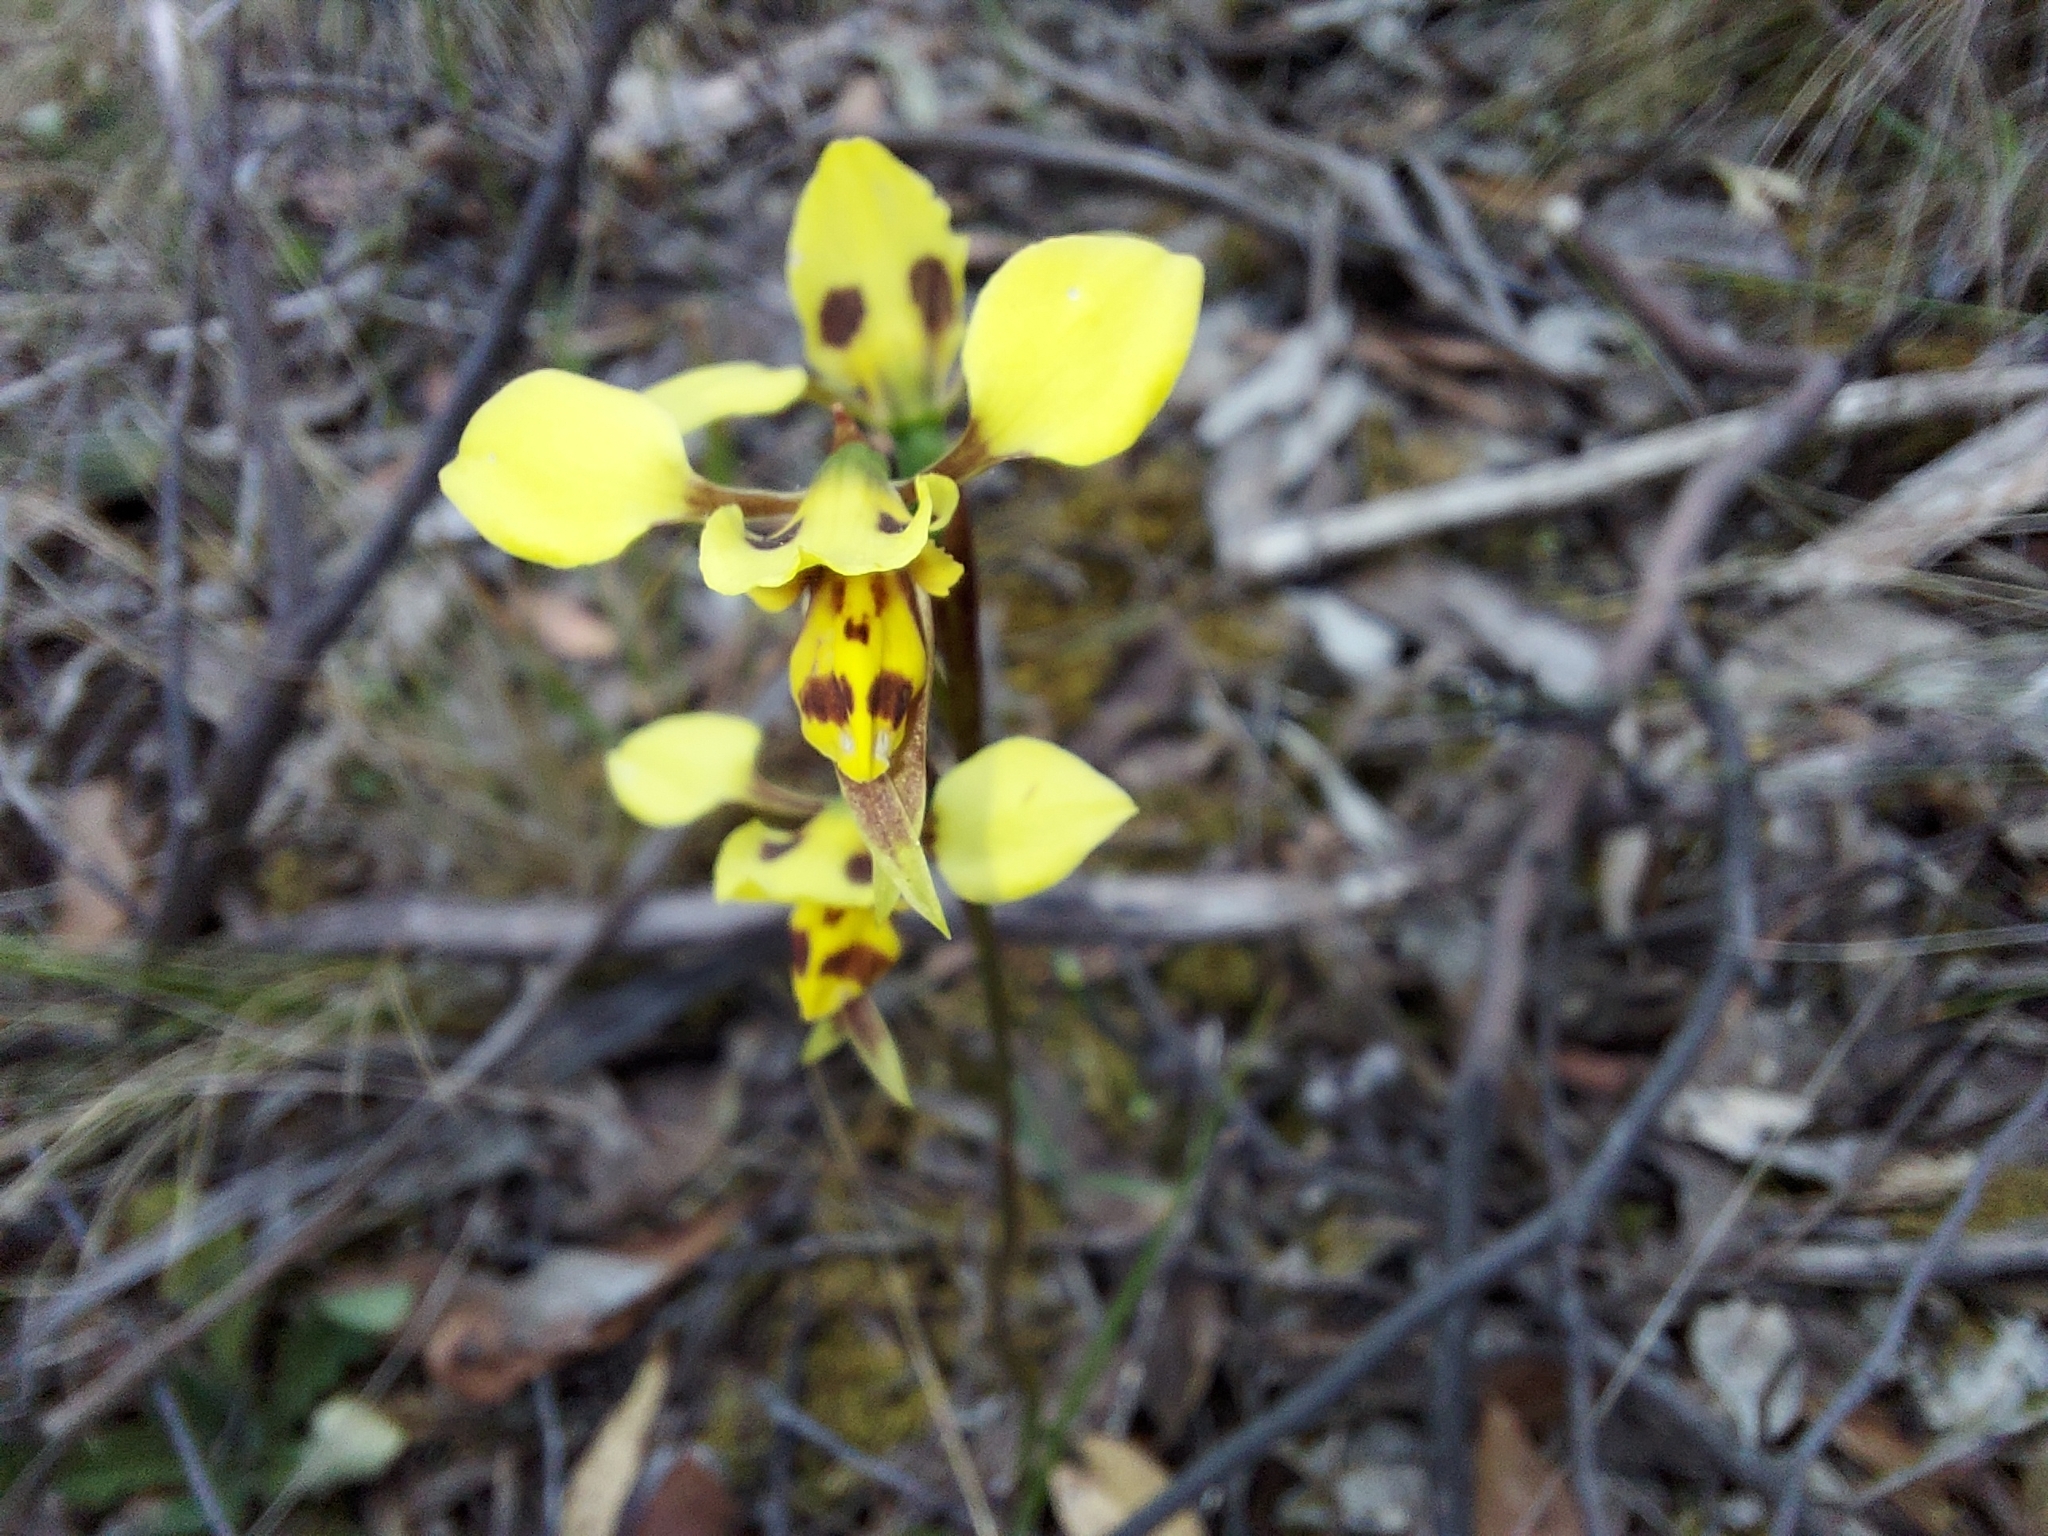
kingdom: Plantae
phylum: Tracheophyta
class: Liliopsida
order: Asparagales
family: Orchidaceae
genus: Diuris
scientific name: Diuris sulphurea
